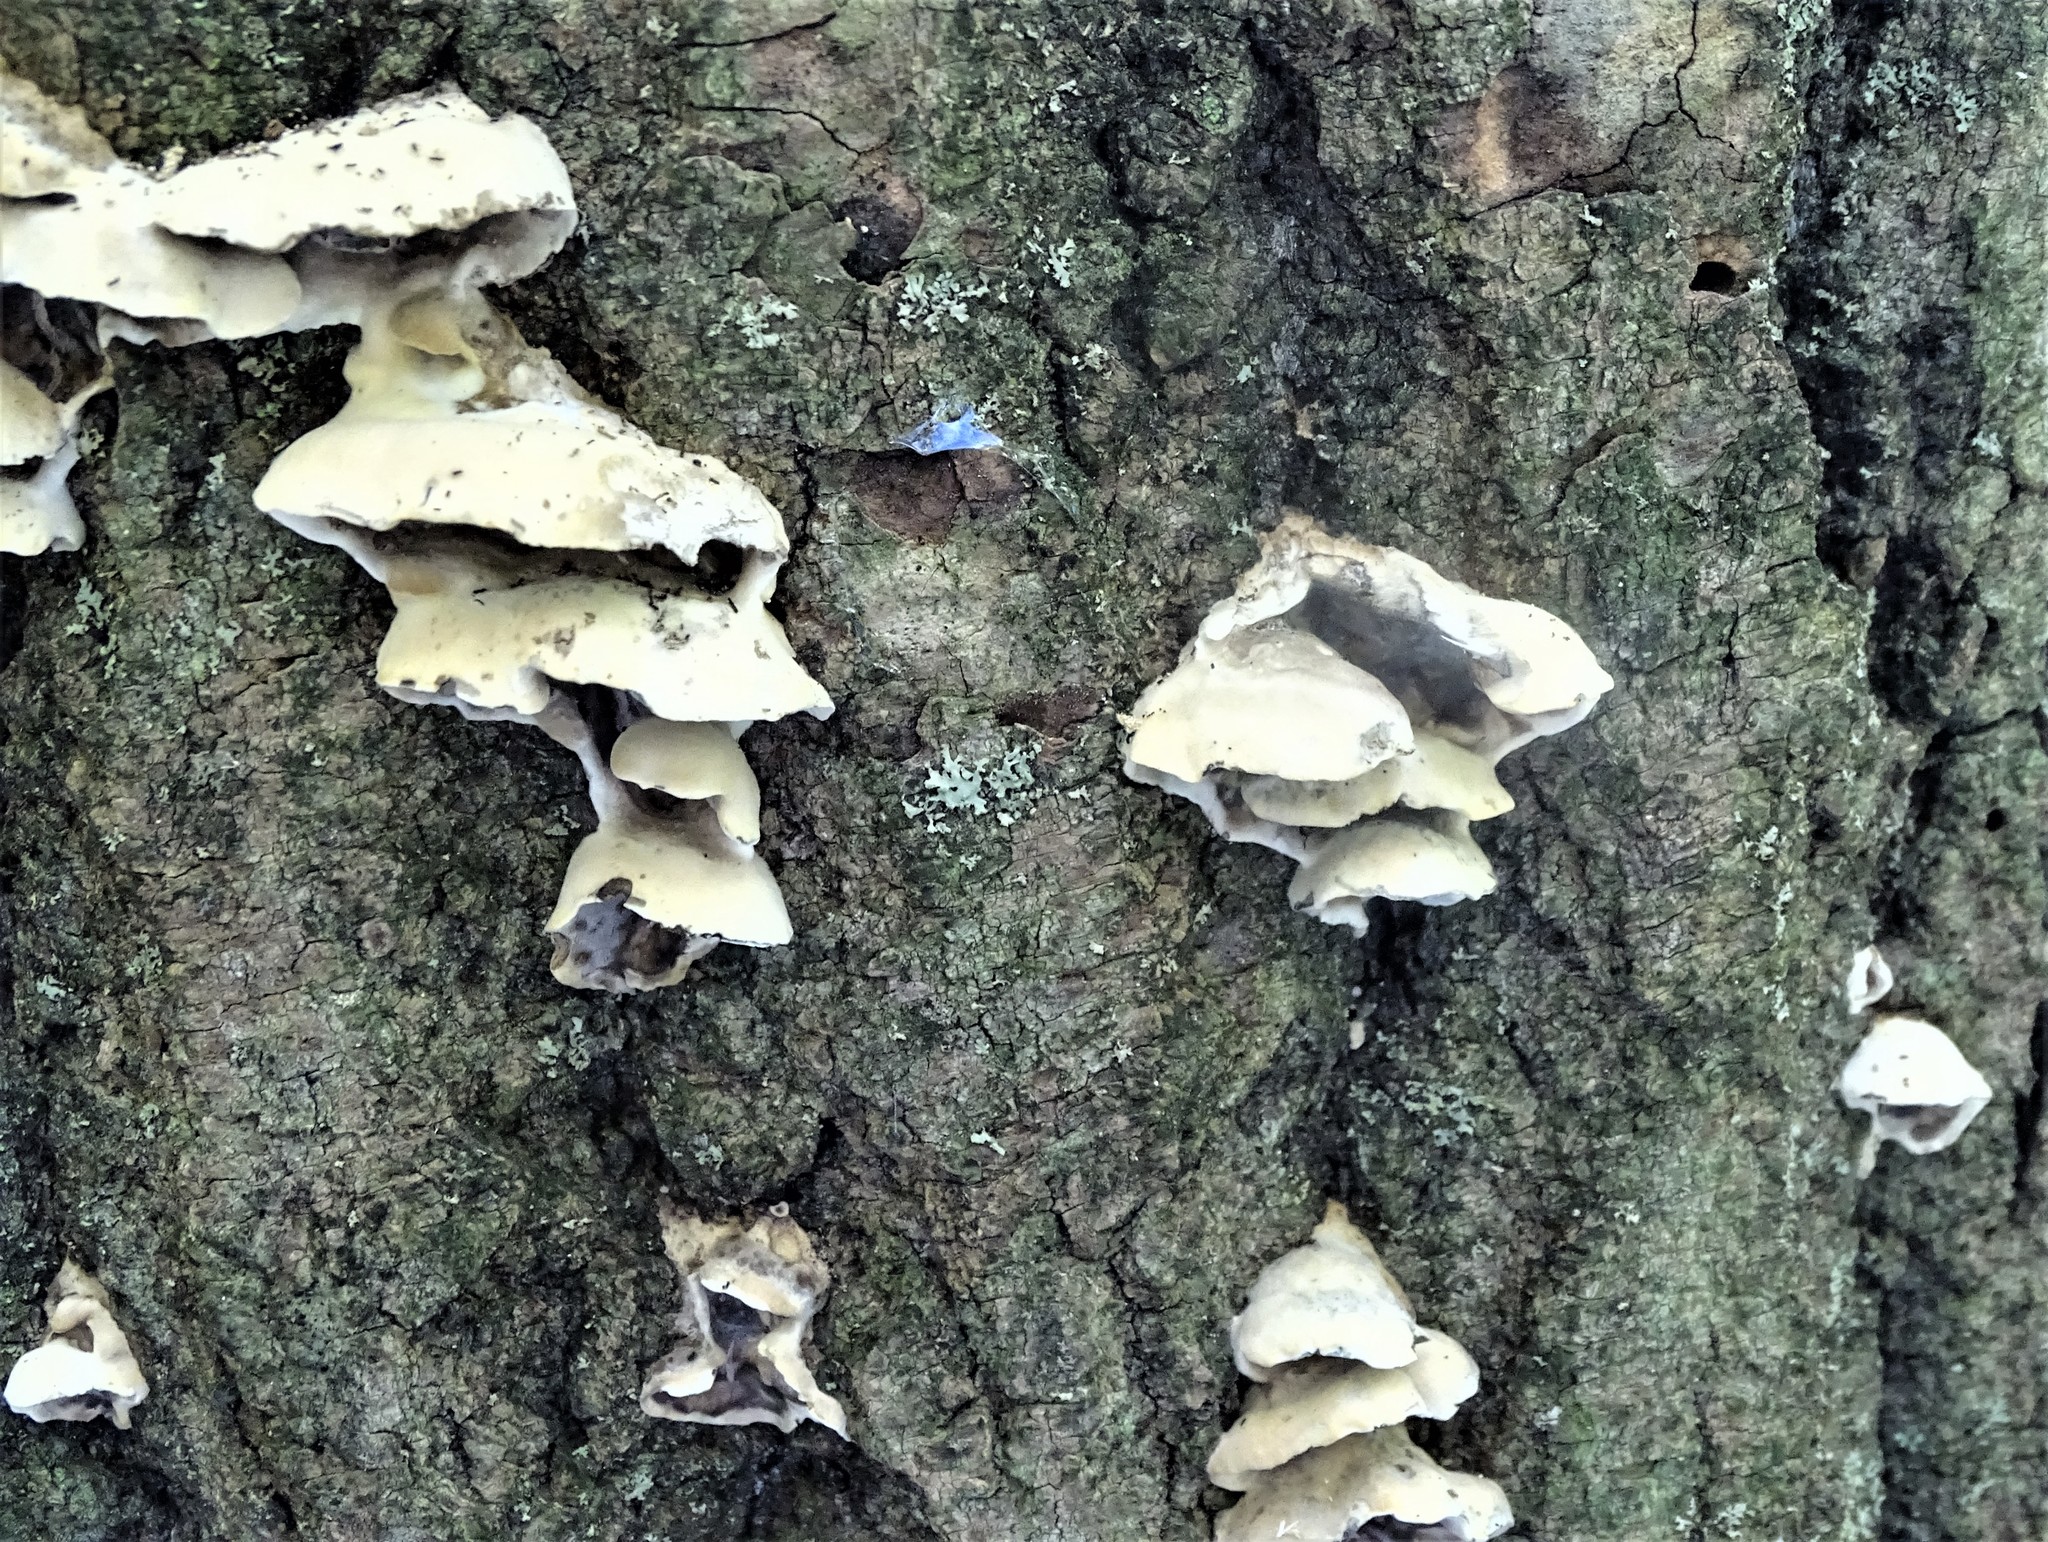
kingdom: Fungi
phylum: Basidiomycota
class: Agaricomycetes
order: Polyporales
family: Phanerochaetaceae
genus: Bjerkandera
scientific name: Bjerkandera adusta
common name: Smoky bracket
